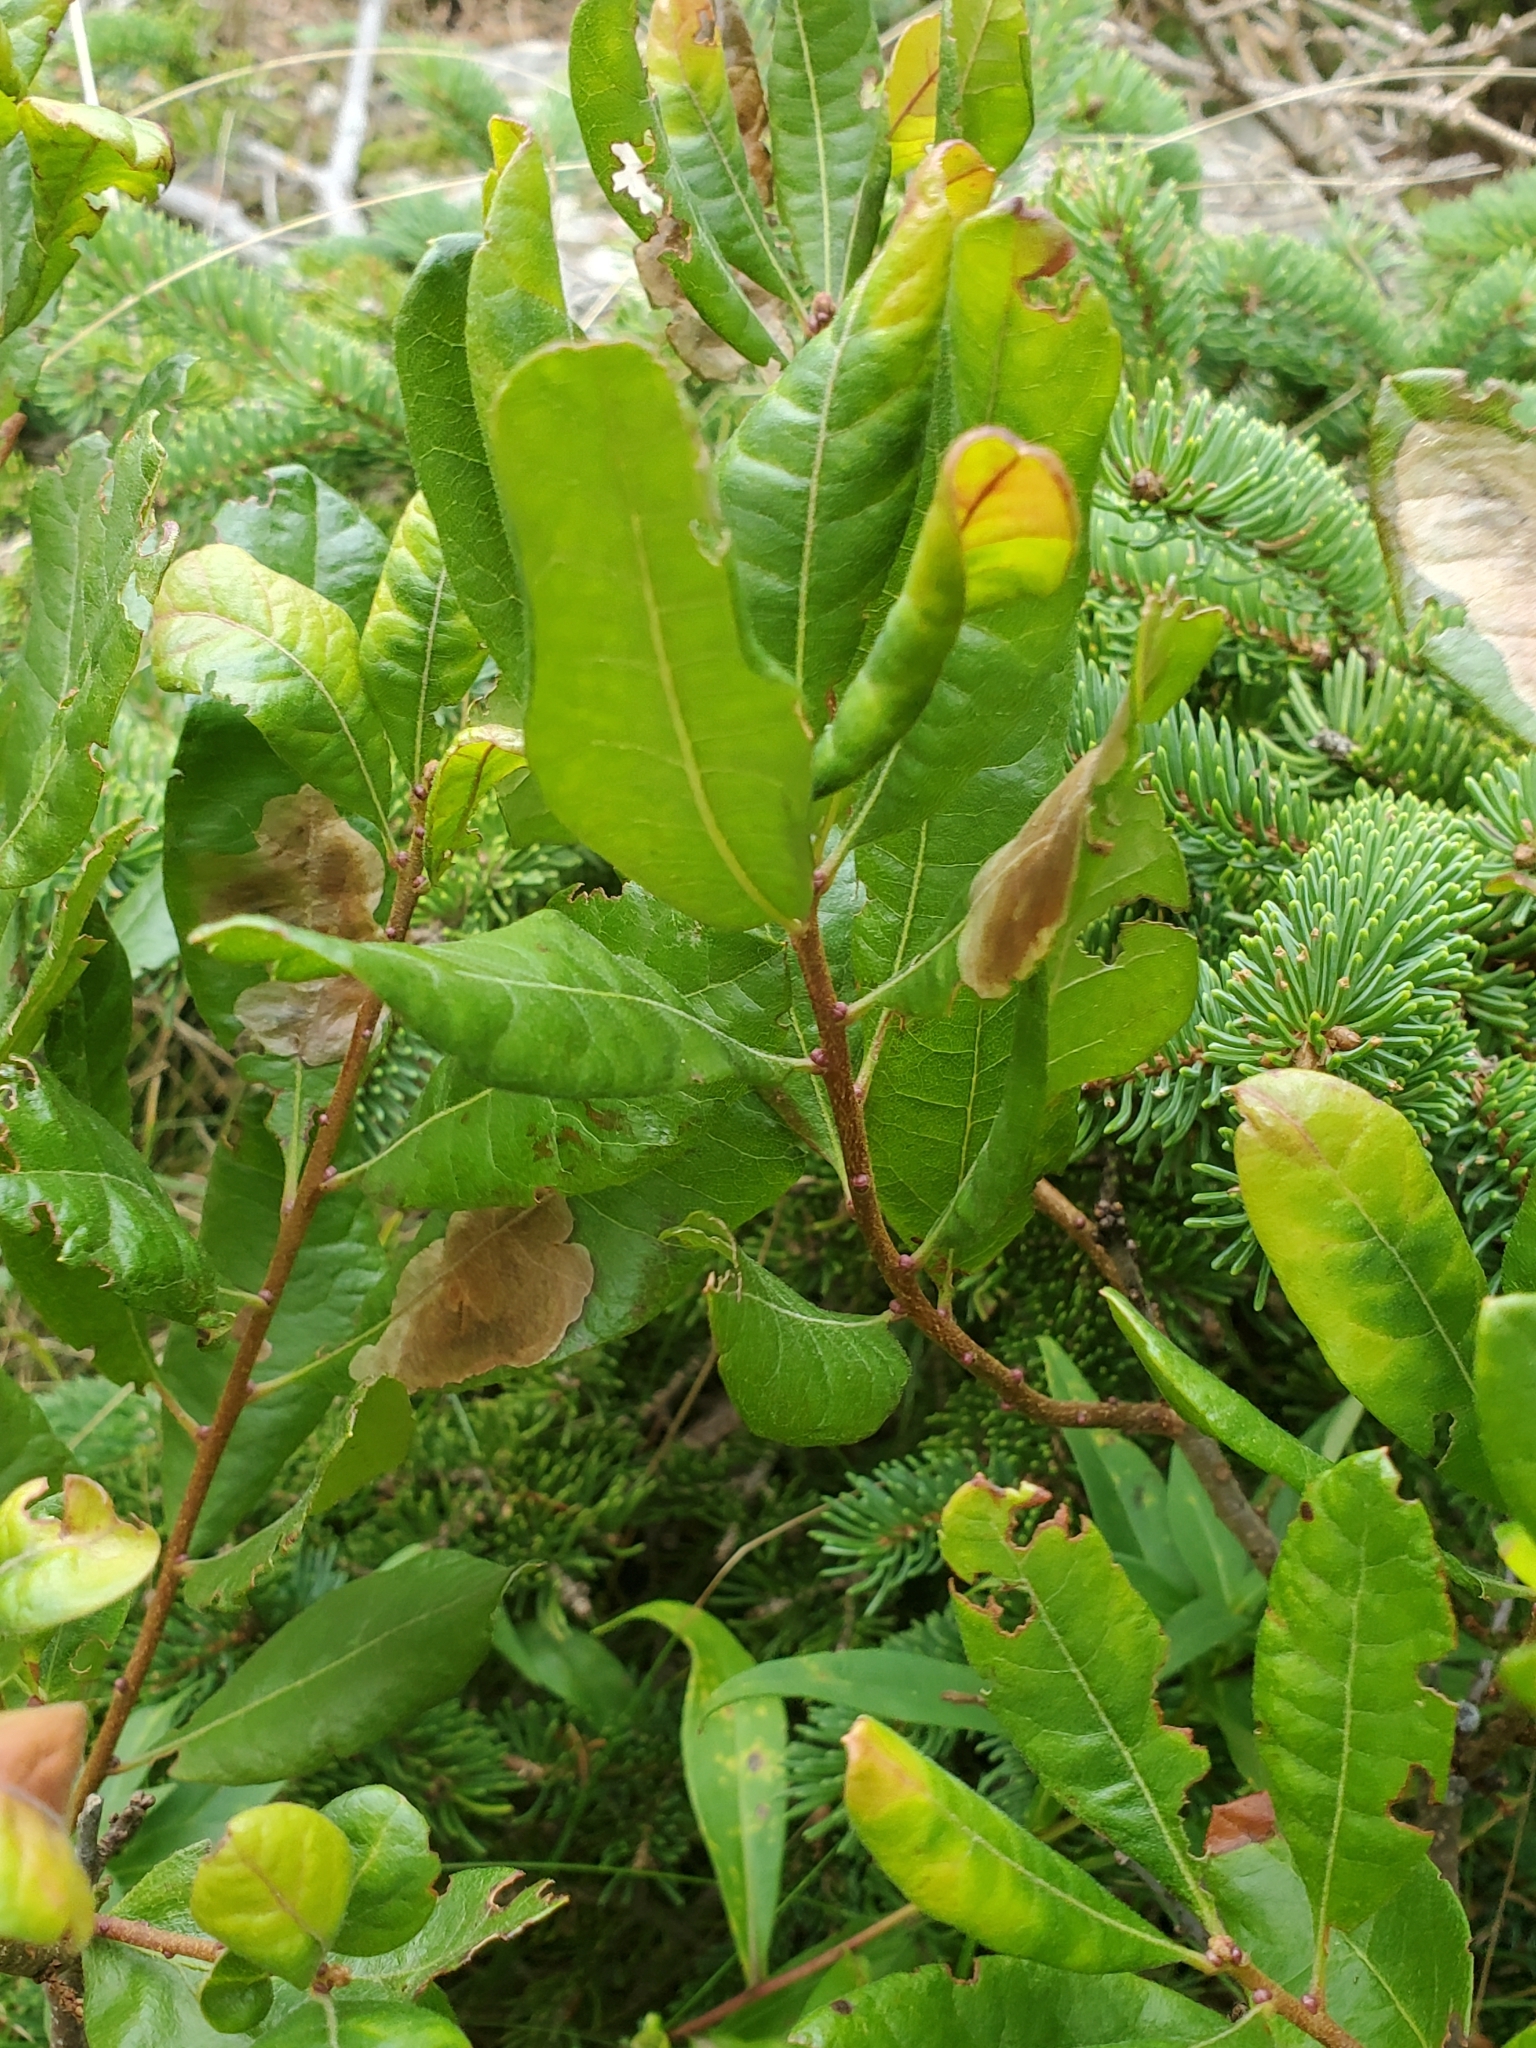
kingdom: Plantae
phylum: Tracheophyta
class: Magnoliopsida
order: Fagales
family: Myricaceae
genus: Morella
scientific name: Morella pensylvanica
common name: Northern bayberry
